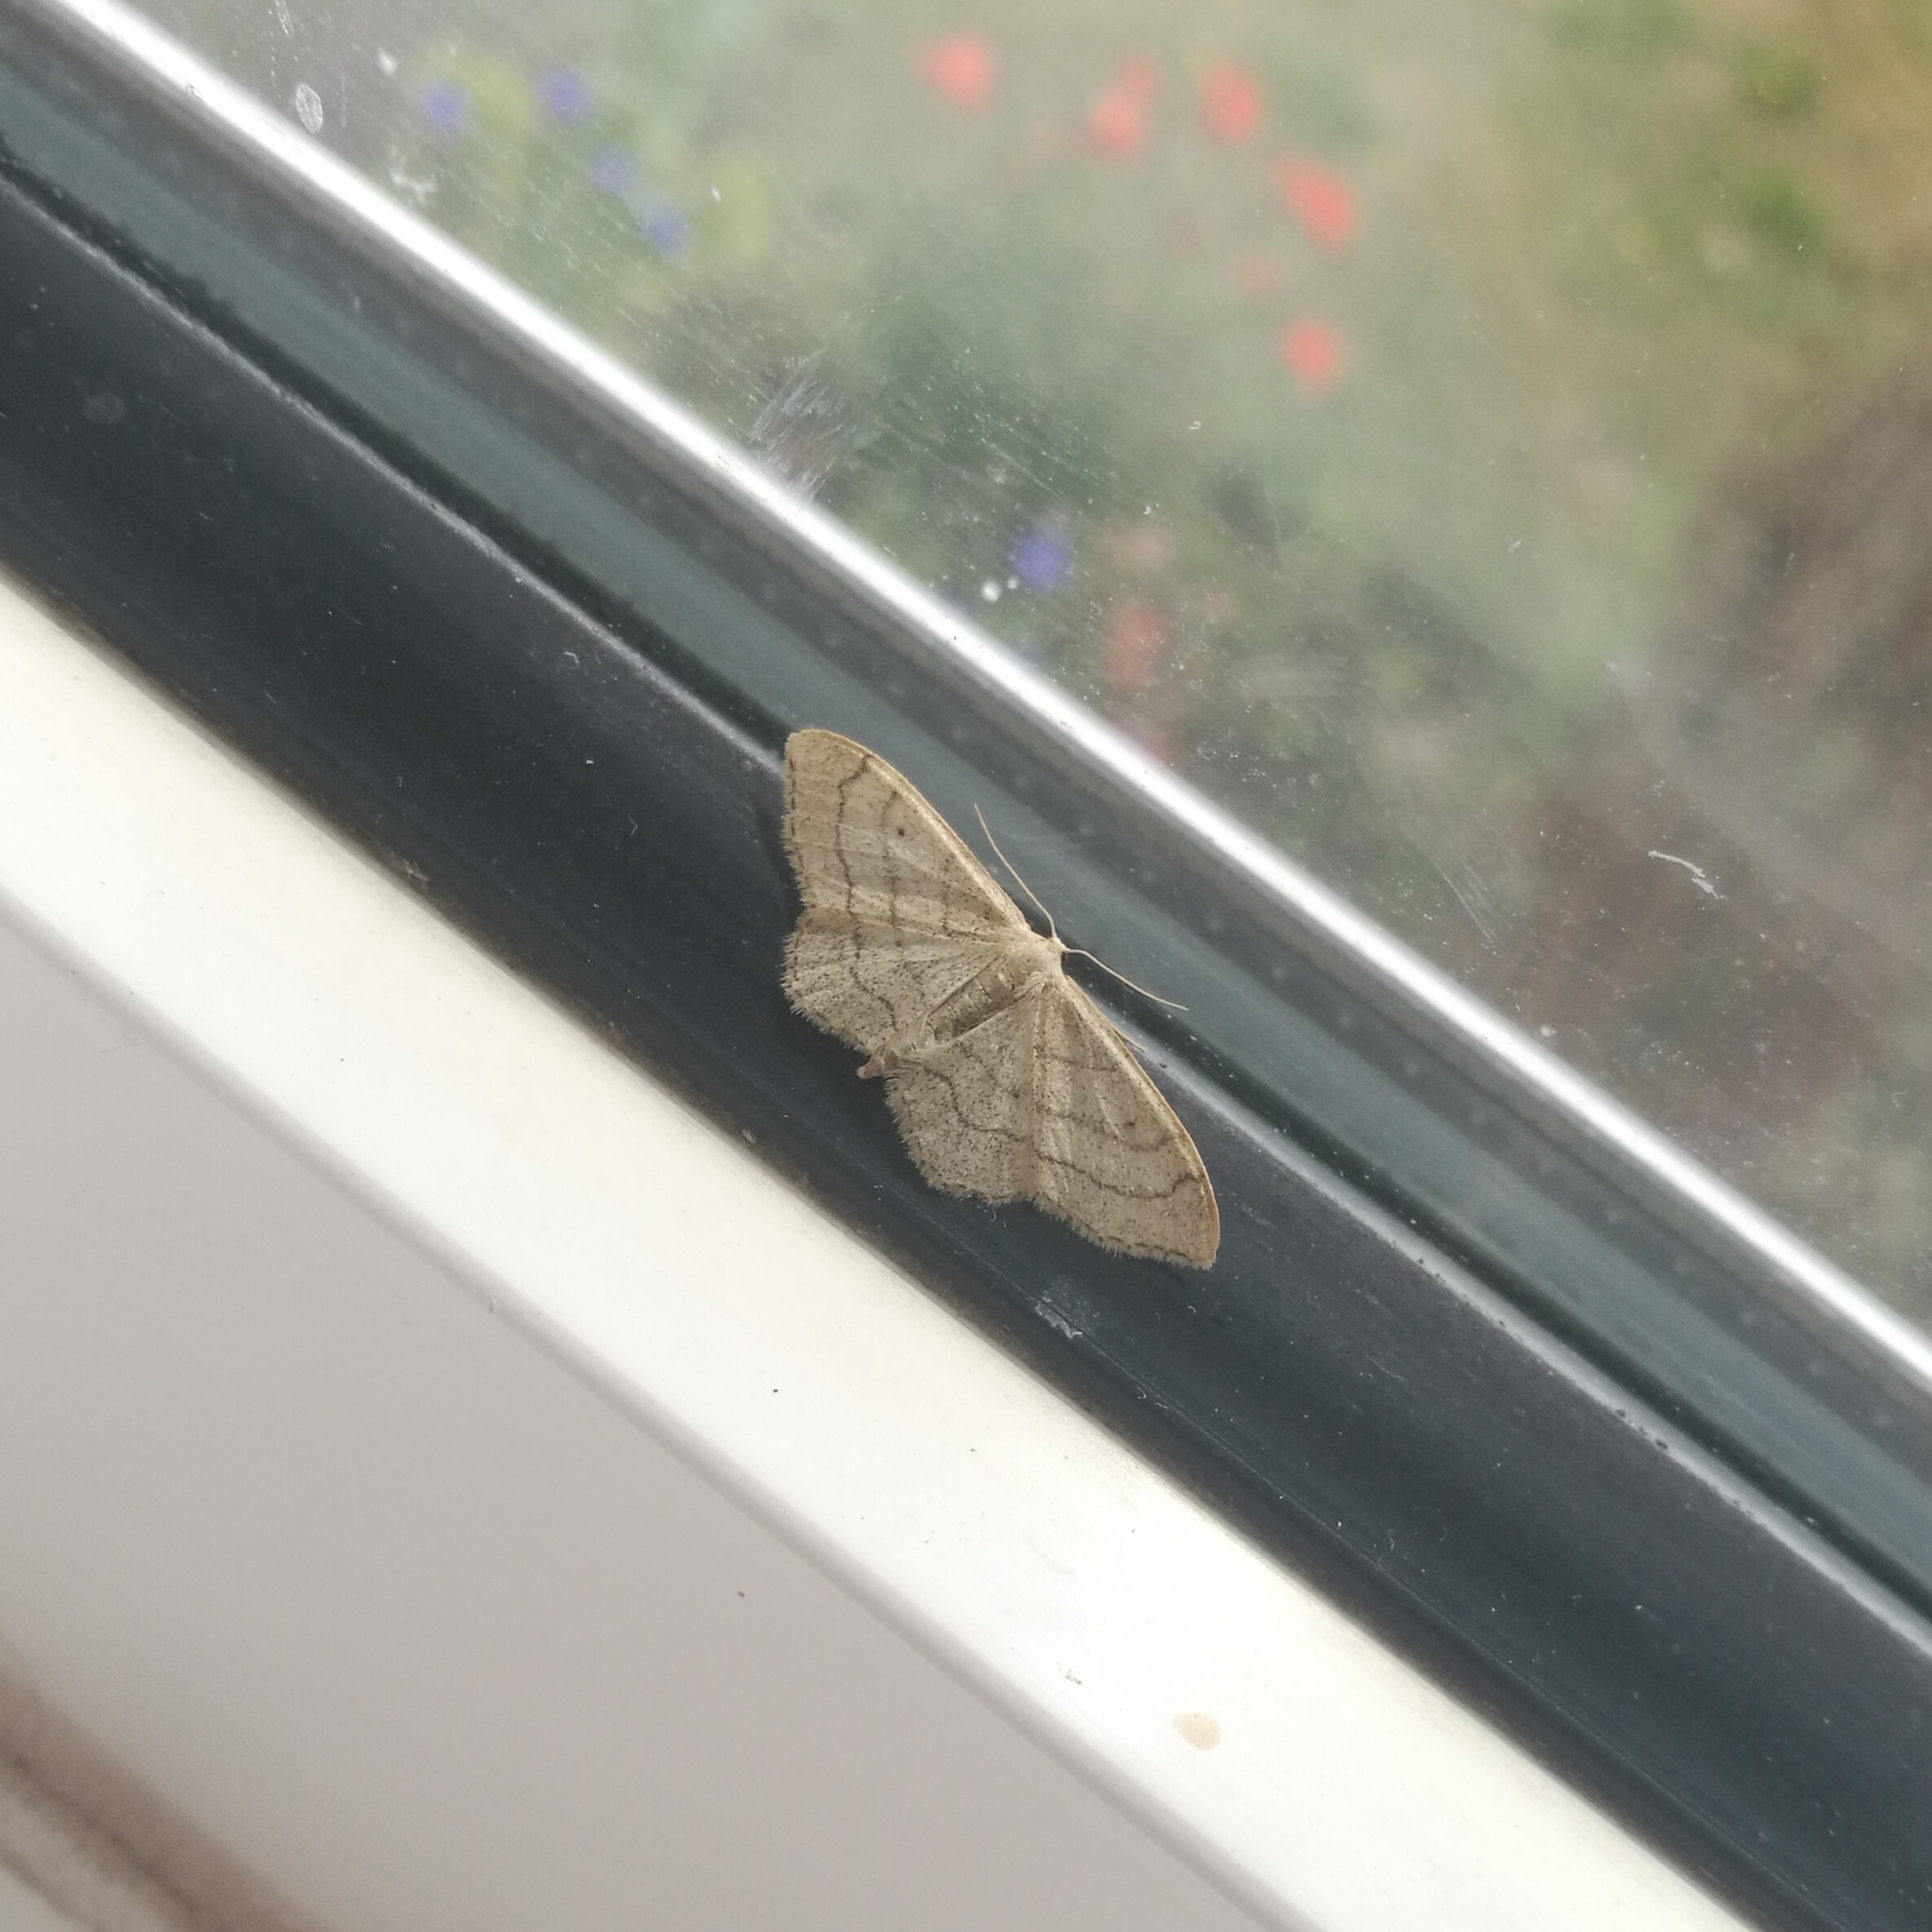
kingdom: Animalia
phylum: Arthropoda
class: Insecta
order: Lepidoptera
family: Geometridae
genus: Idaea
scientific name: Idaea aversata
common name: Riband wave
